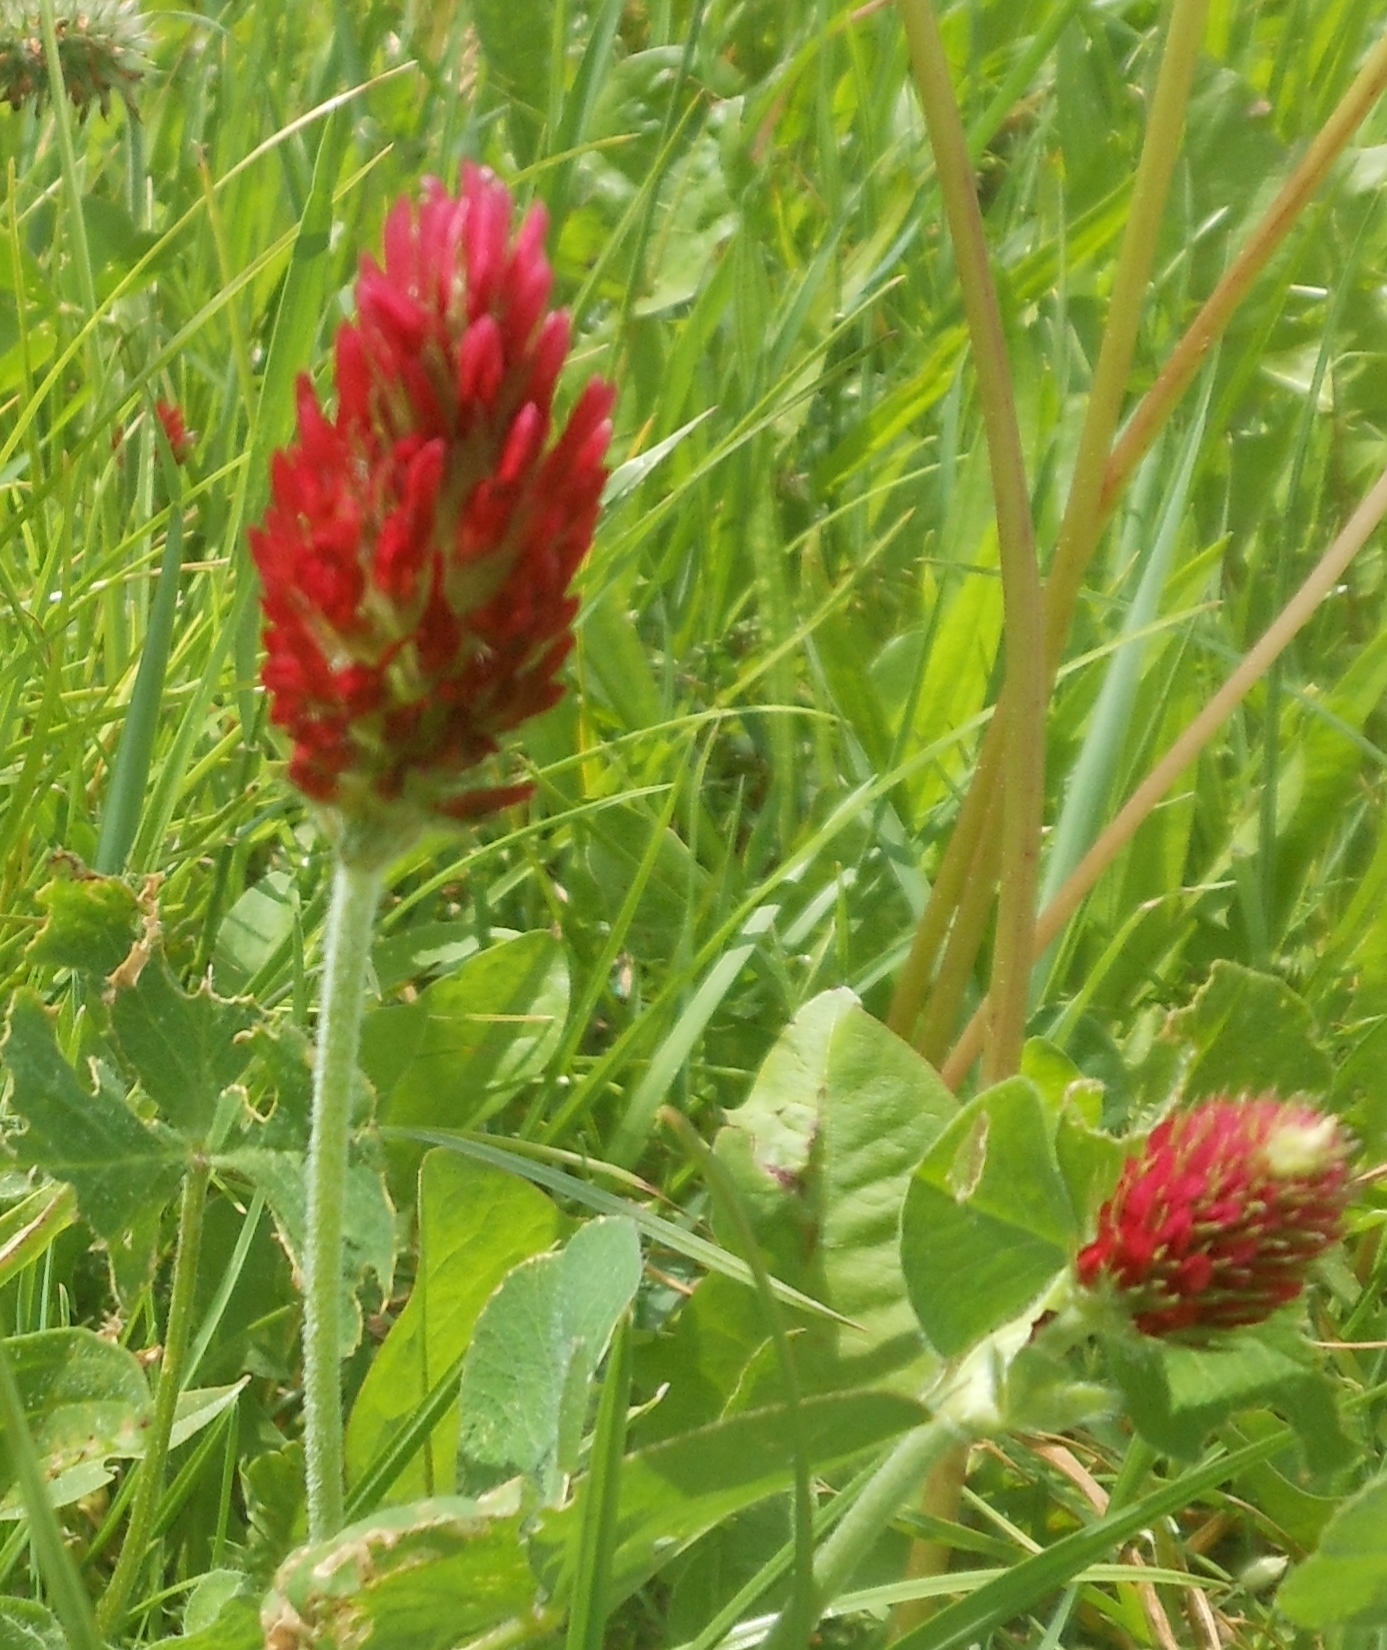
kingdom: Plantae
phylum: Tracheophyta
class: Magnoliopsida
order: Fabales
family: Fabaceae
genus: Trifolium
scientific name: Trifolium incarnatum
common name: Crimson clover
